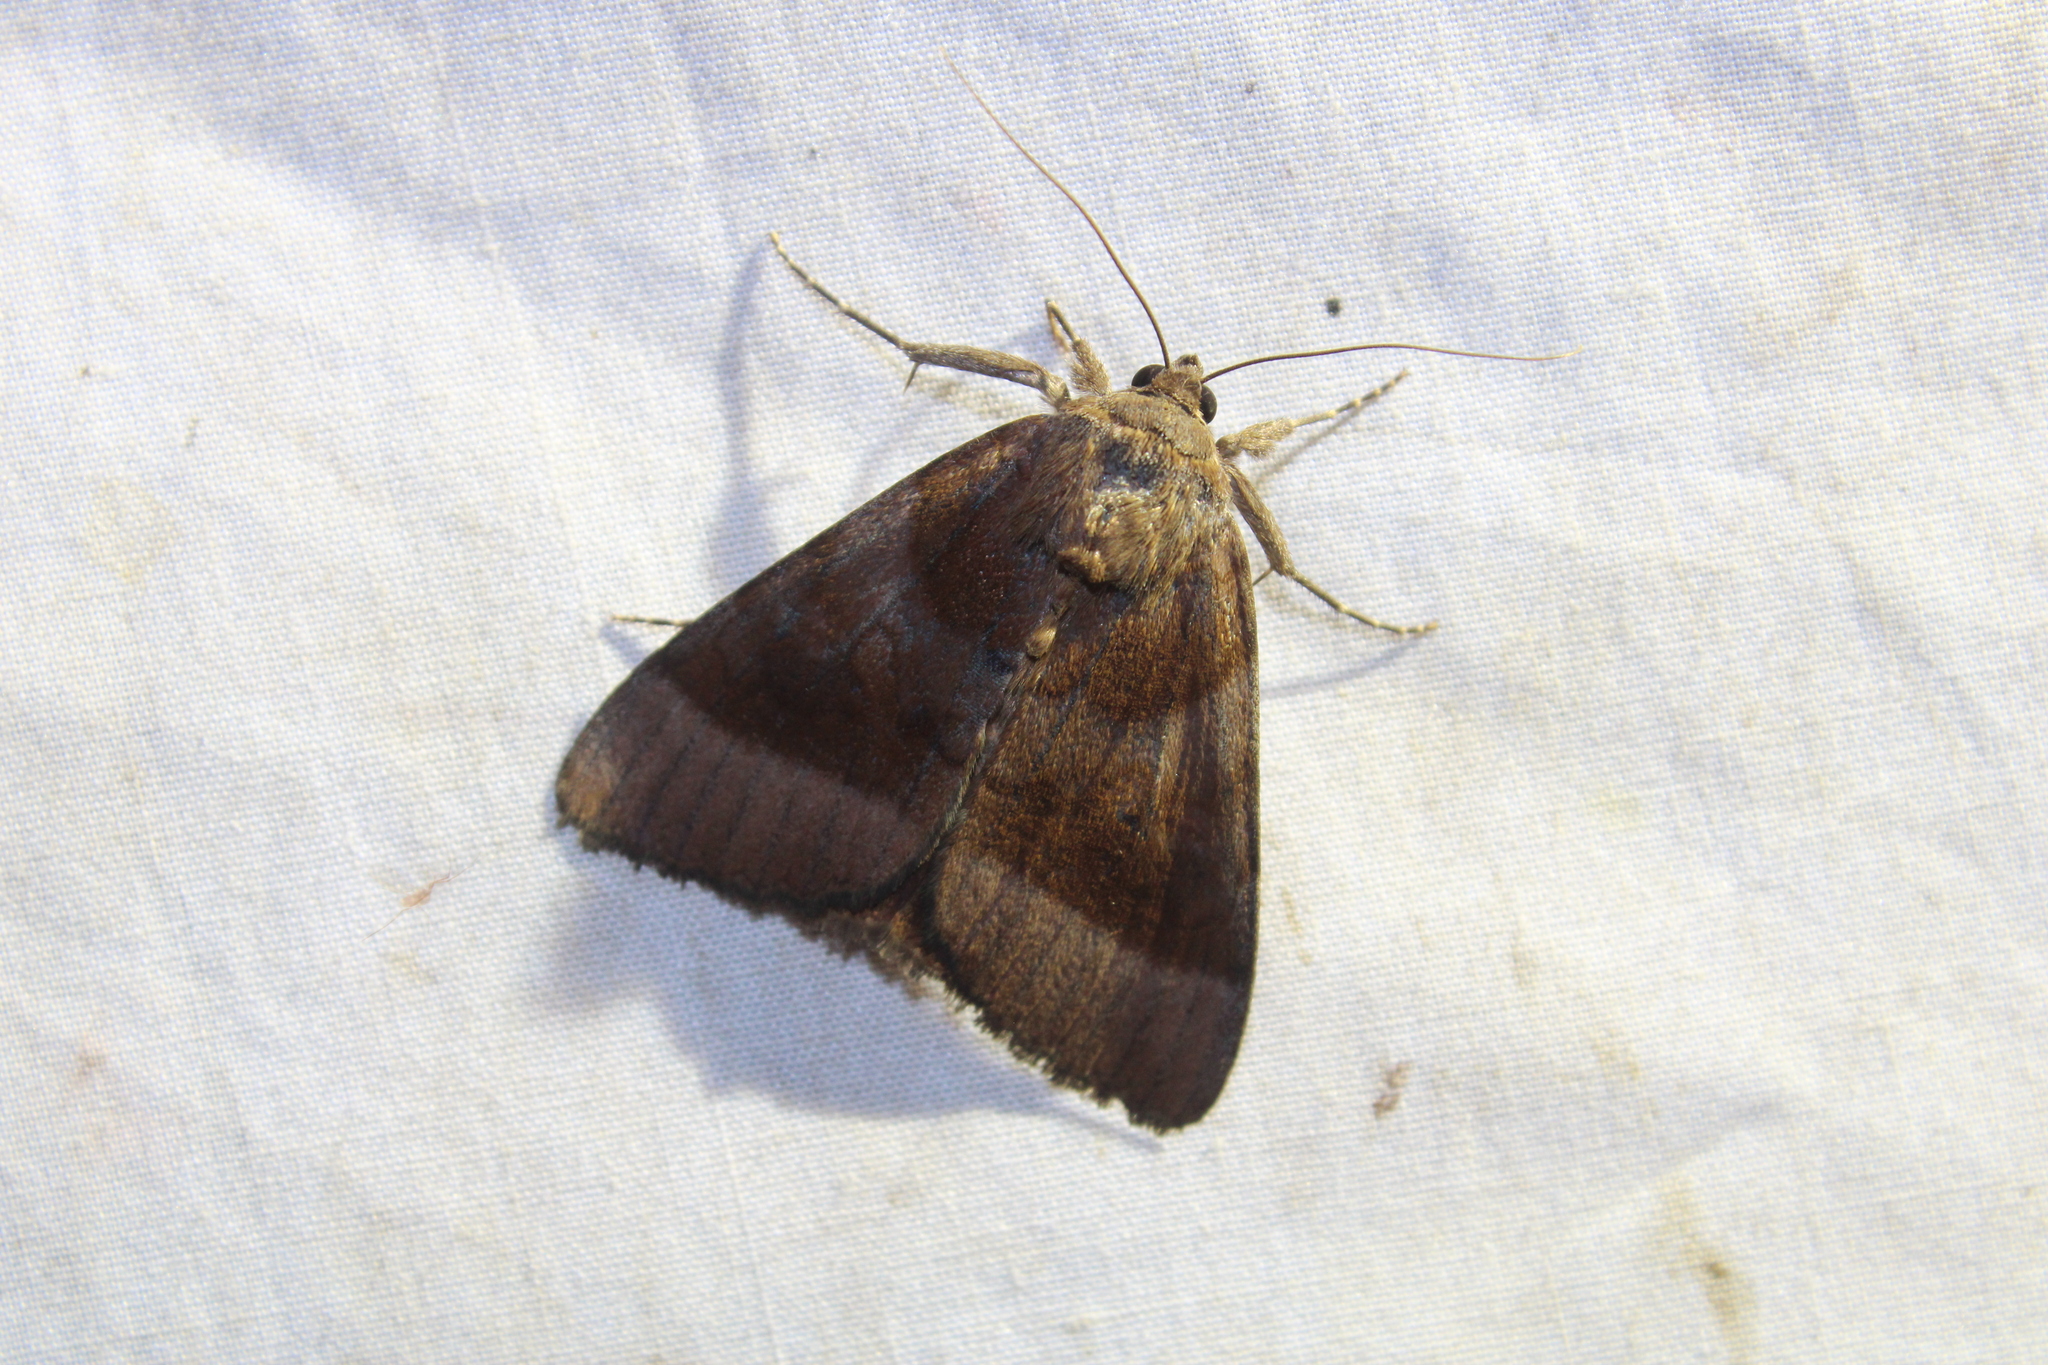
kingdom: Animalia
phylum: Arthropoda
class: Insecta
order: Lepidoptera
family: Erebidae
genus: Catocala
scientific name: Catocala badia
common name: Bay underwing
